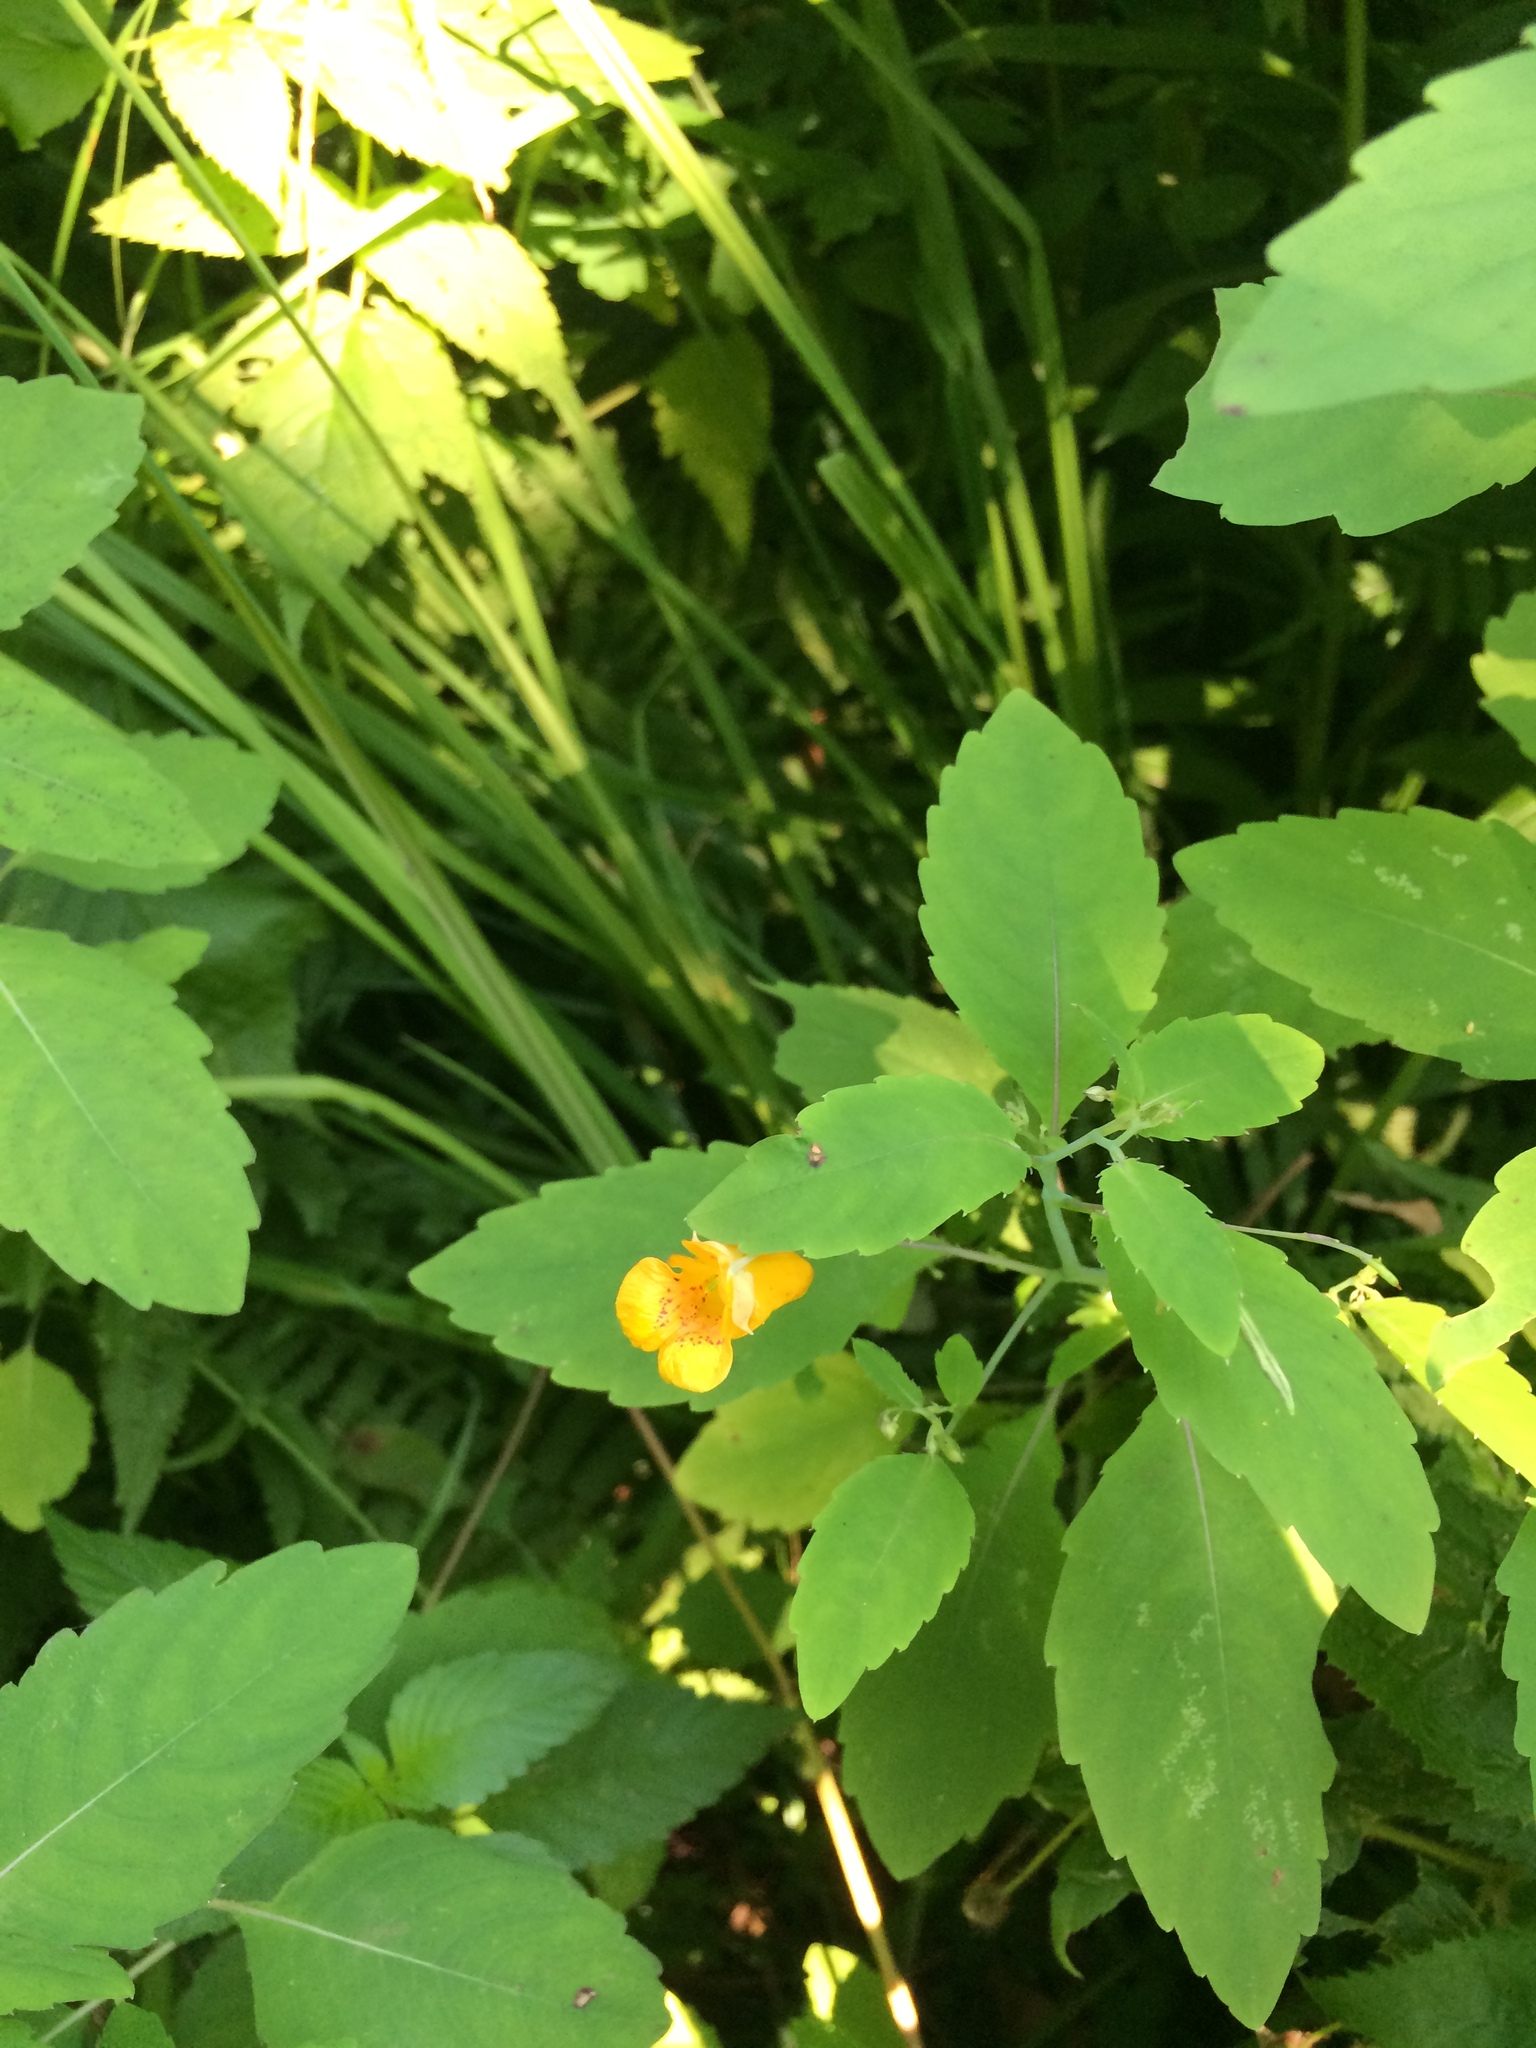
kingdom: Plantae
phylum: Tracheophyta
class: Magnoliopsida
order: Ericales
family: Balsaminaceae
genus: Impatiens
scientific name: Impatiens capensis
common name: Orange balsam
